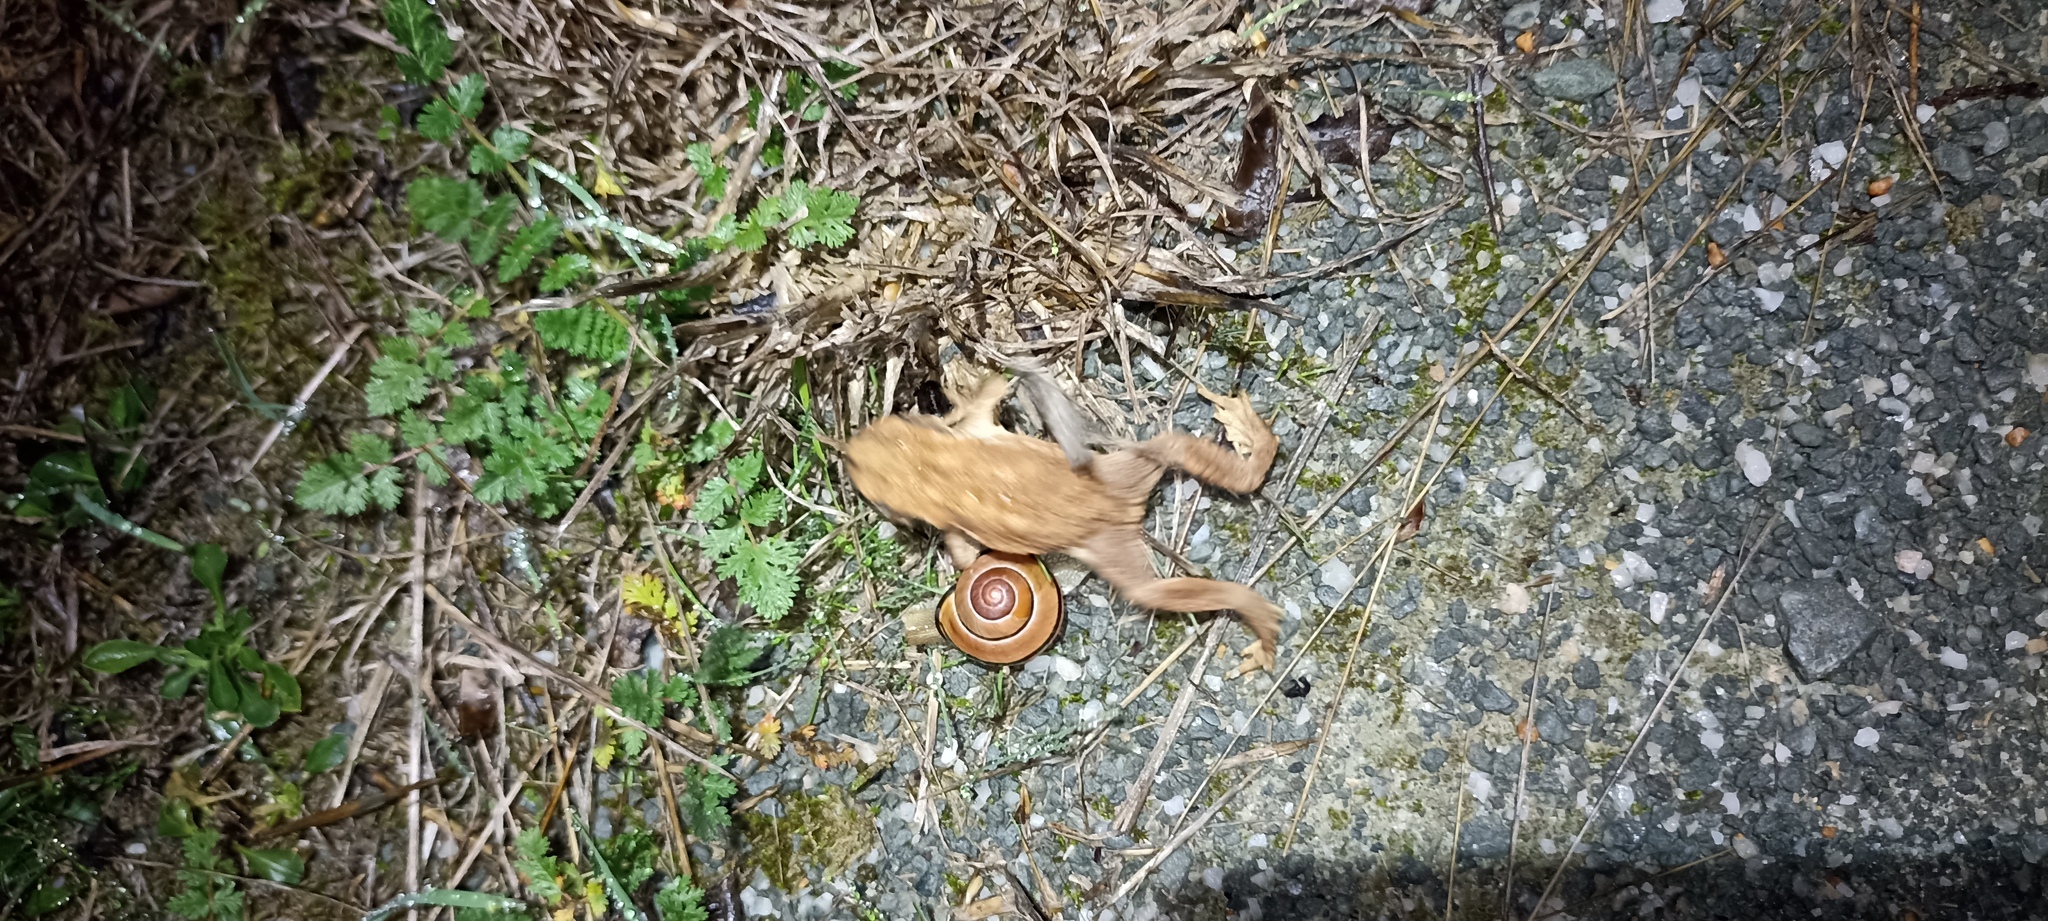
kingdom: Animalia
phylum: Chordata
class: Amphibia
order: Anura
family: Bufonidae
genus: Bufo
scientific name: Bufo spinosus
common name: Western common toad
